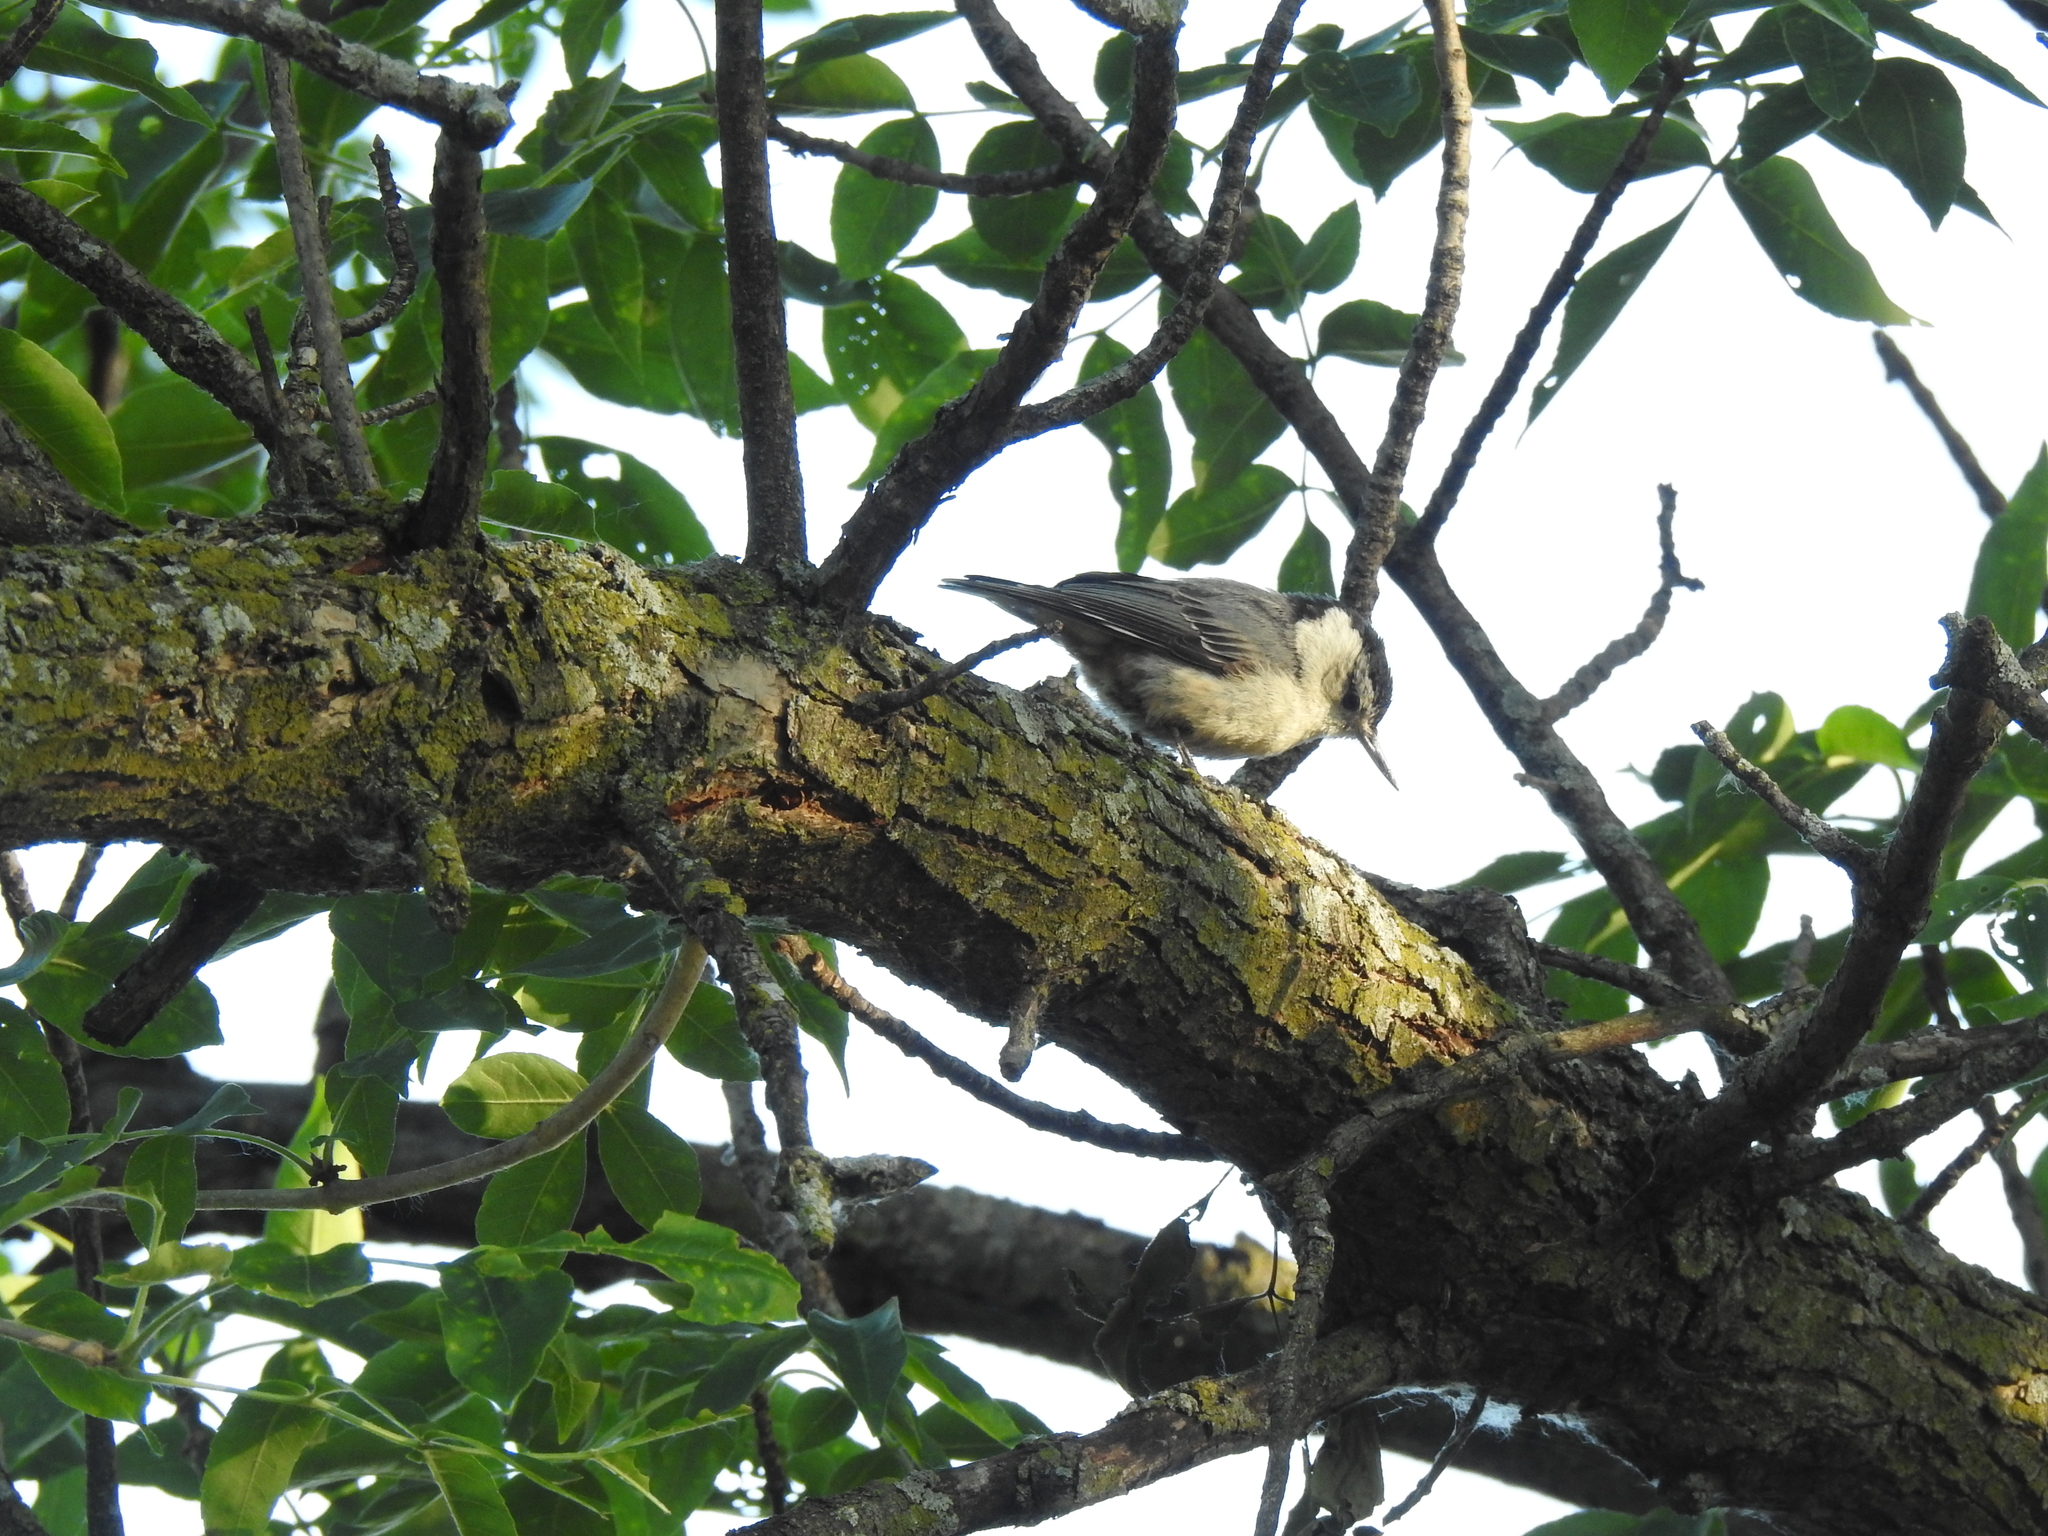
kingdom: Animalia
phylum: Chordata
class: Aves
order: Passeriformes
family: Sittidae
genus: Sitta
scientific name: Sitta carolinensis
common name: White-breasted nuthatch
